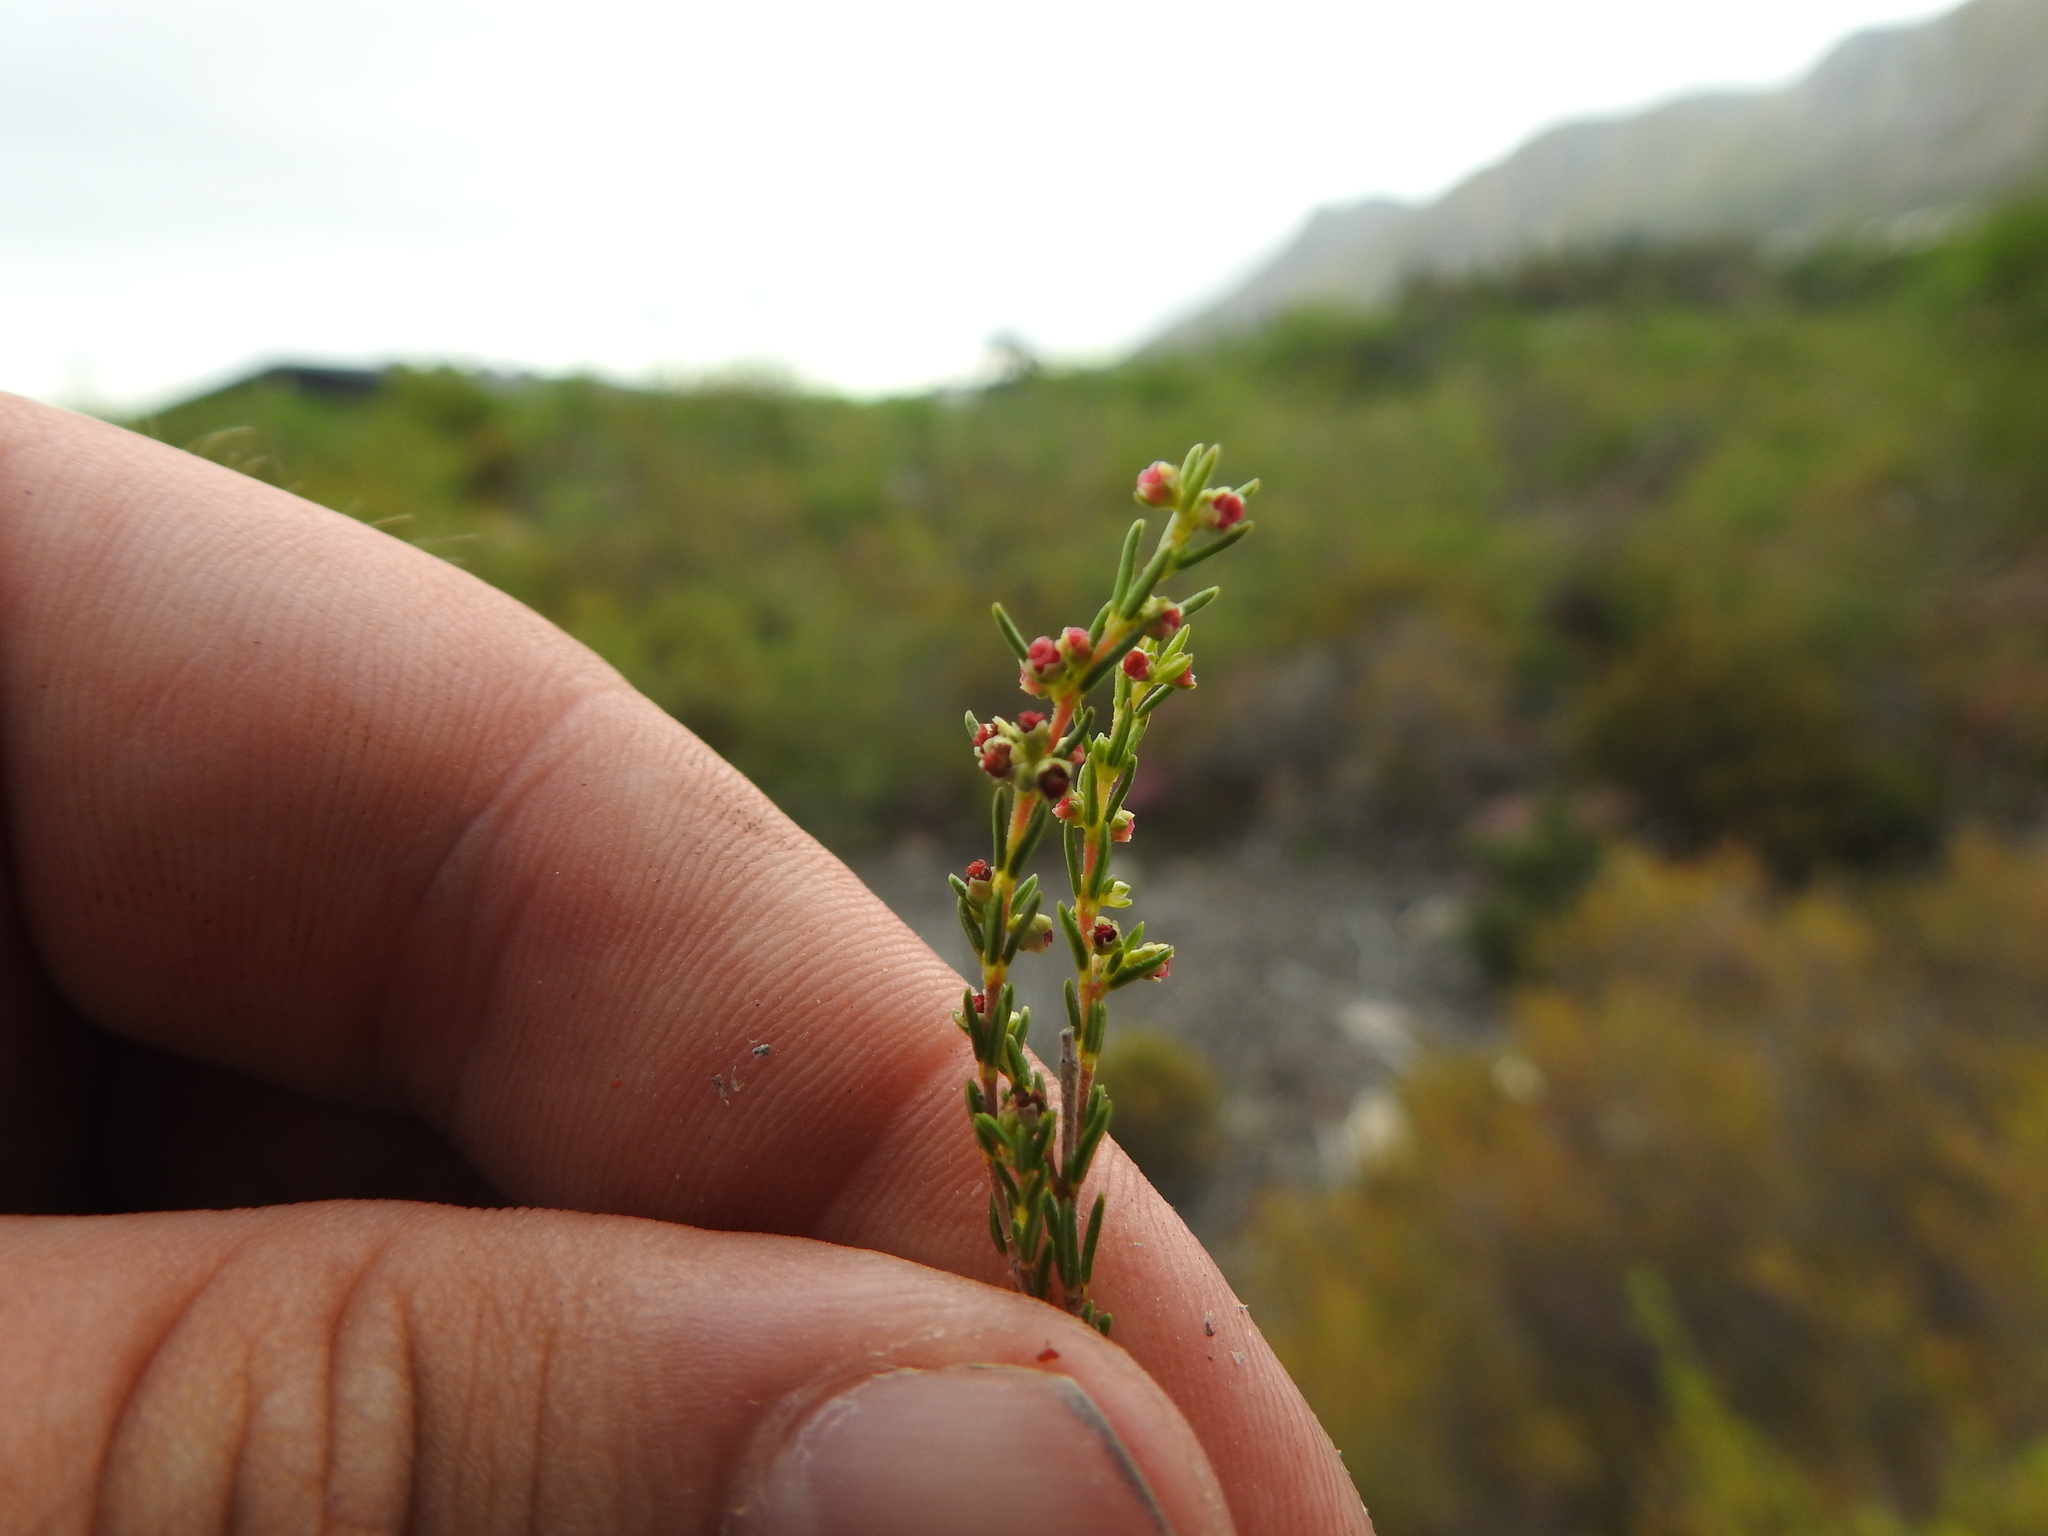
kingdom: Plantae
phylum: Tracheophyta
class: Magnoliopsida
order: Ericales
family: Ericaceae
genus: Erica
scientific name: Erica axillaris
